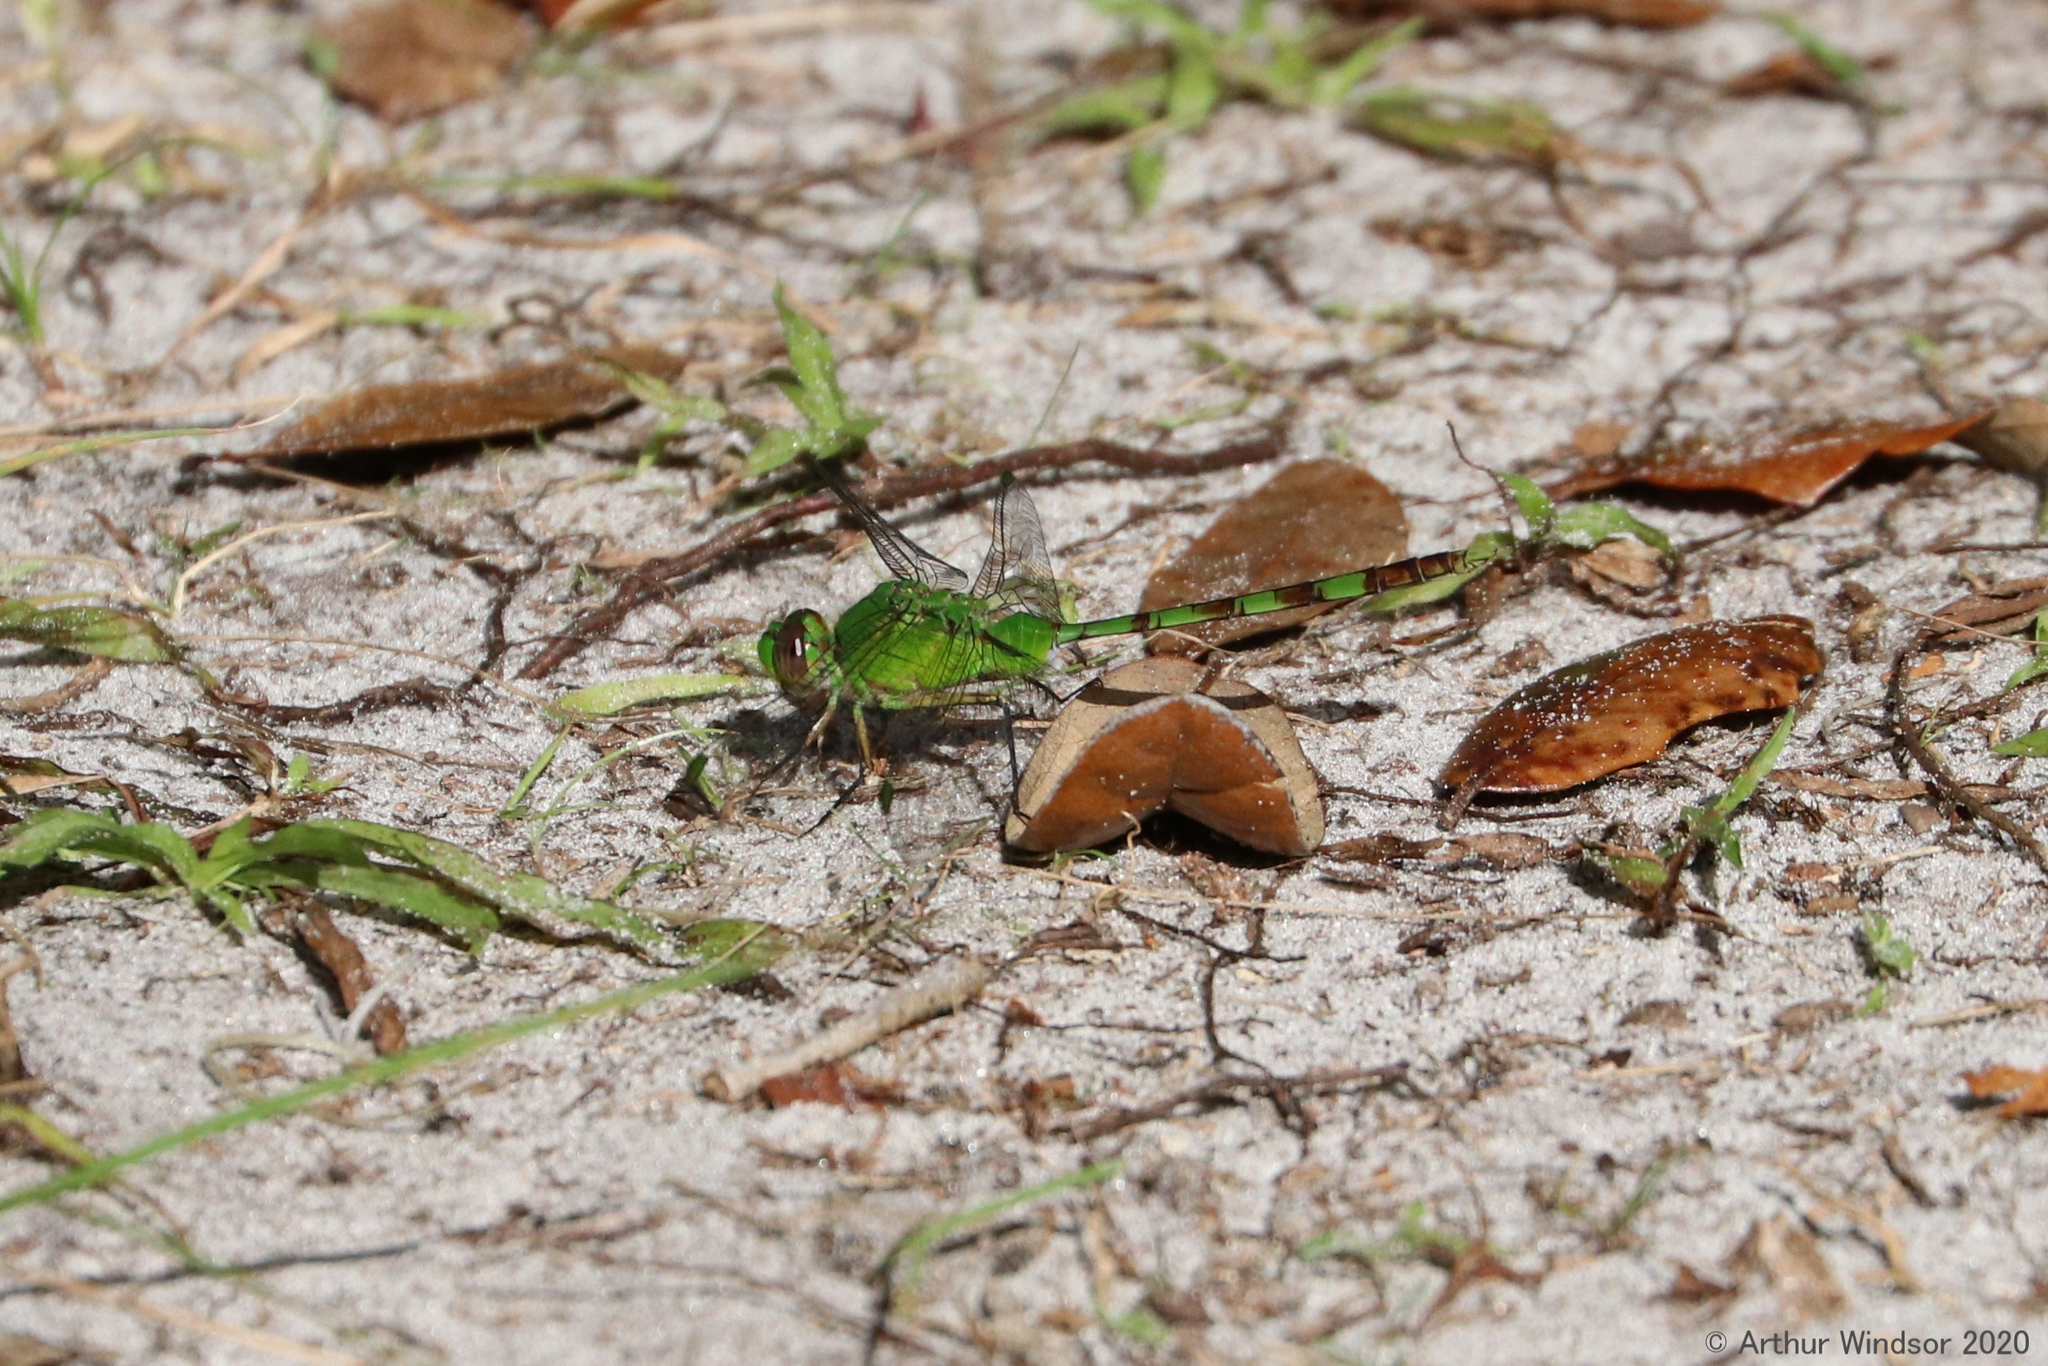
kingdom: Animalia
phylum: Arthropoda
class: Insecta
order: Odonata
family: Libellulidae
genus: Erythemis
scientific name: Erythemis vesiculosa
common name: Great pondhawk
